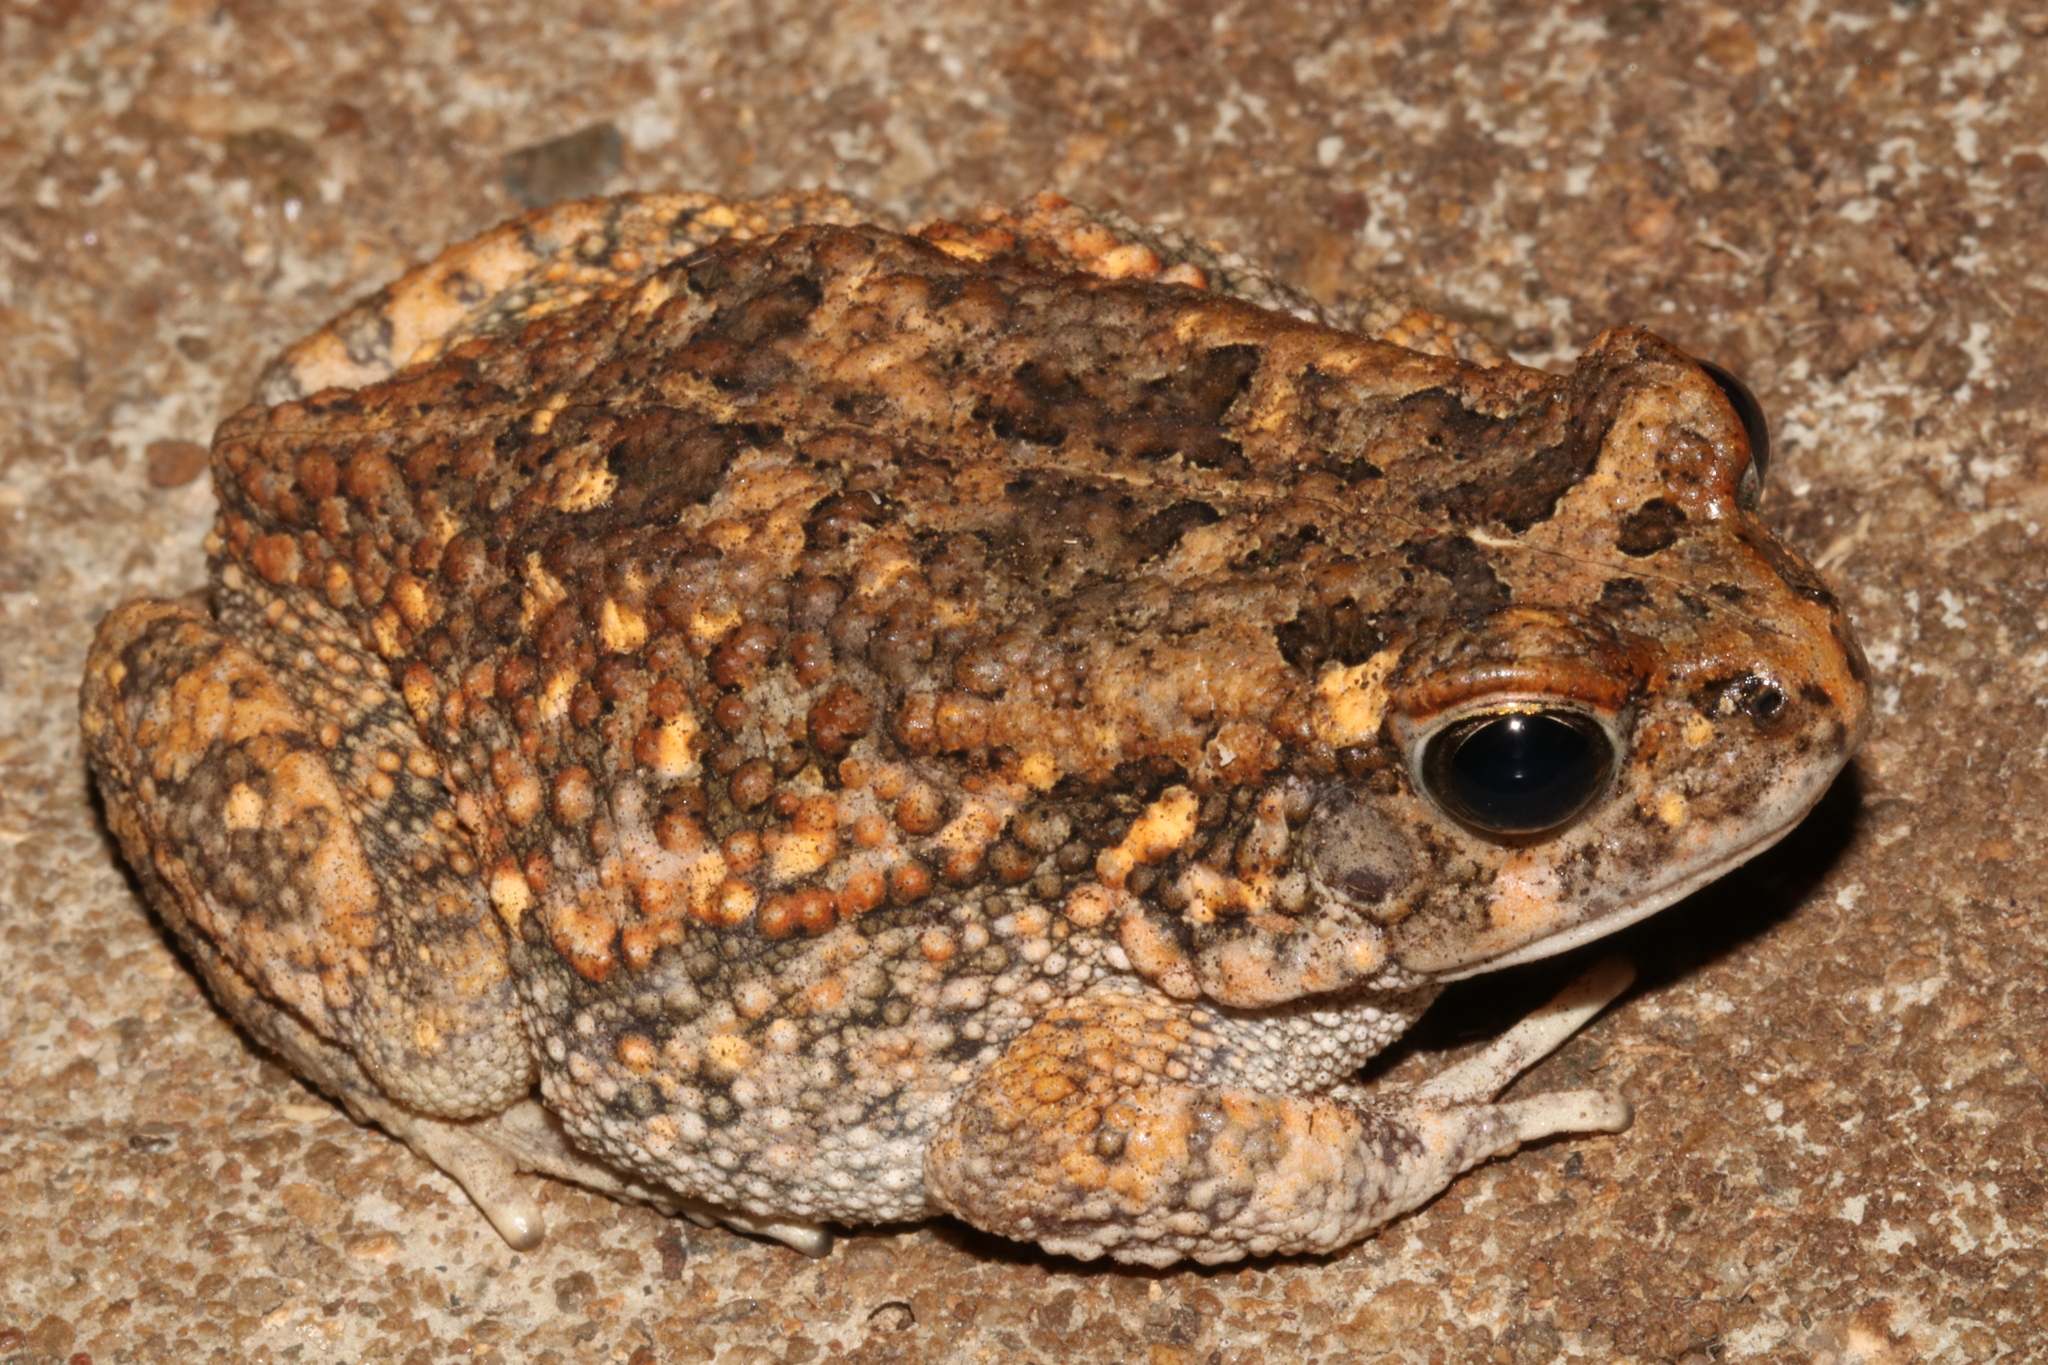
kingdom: Animalia
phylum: Chordata
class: Amphibia
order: Anura
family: Bufonidae
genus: Sclerophrys
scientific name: Sclerophrys pusilla
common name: Merten's striped toad
